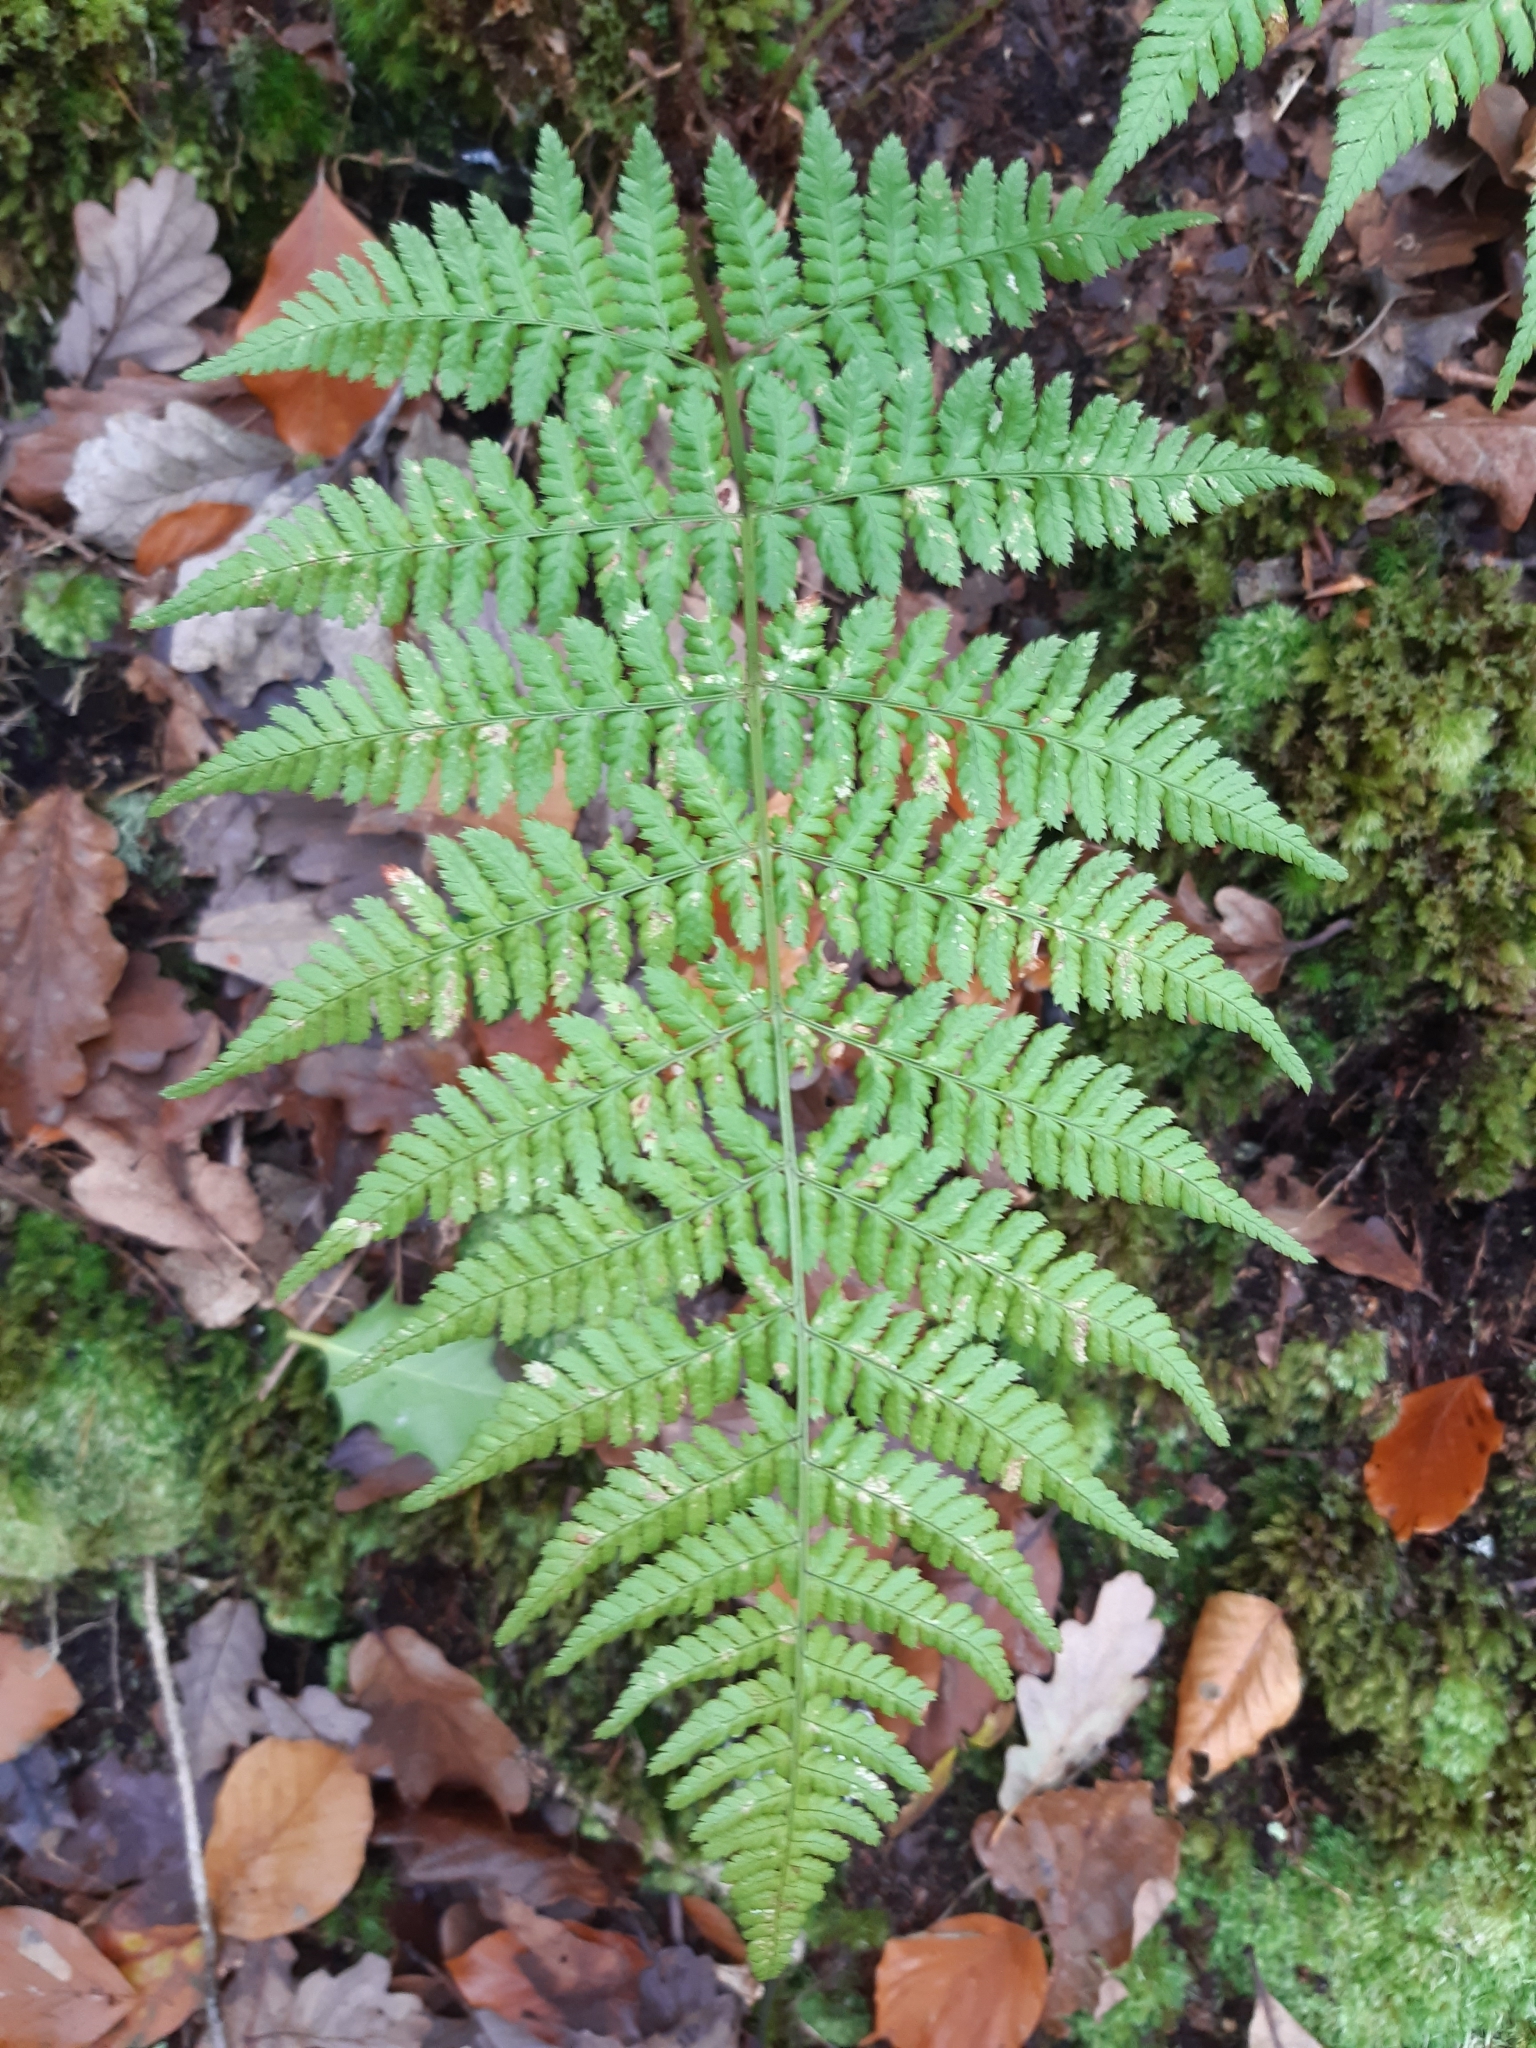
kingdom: Plantae
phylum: Tracheophyta
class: Polypodiopsida
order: Polypodiales
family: Dryopteridaceae
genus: Dryopteris
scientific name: Dryopteris dilatata
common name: Broad buckler-fern
